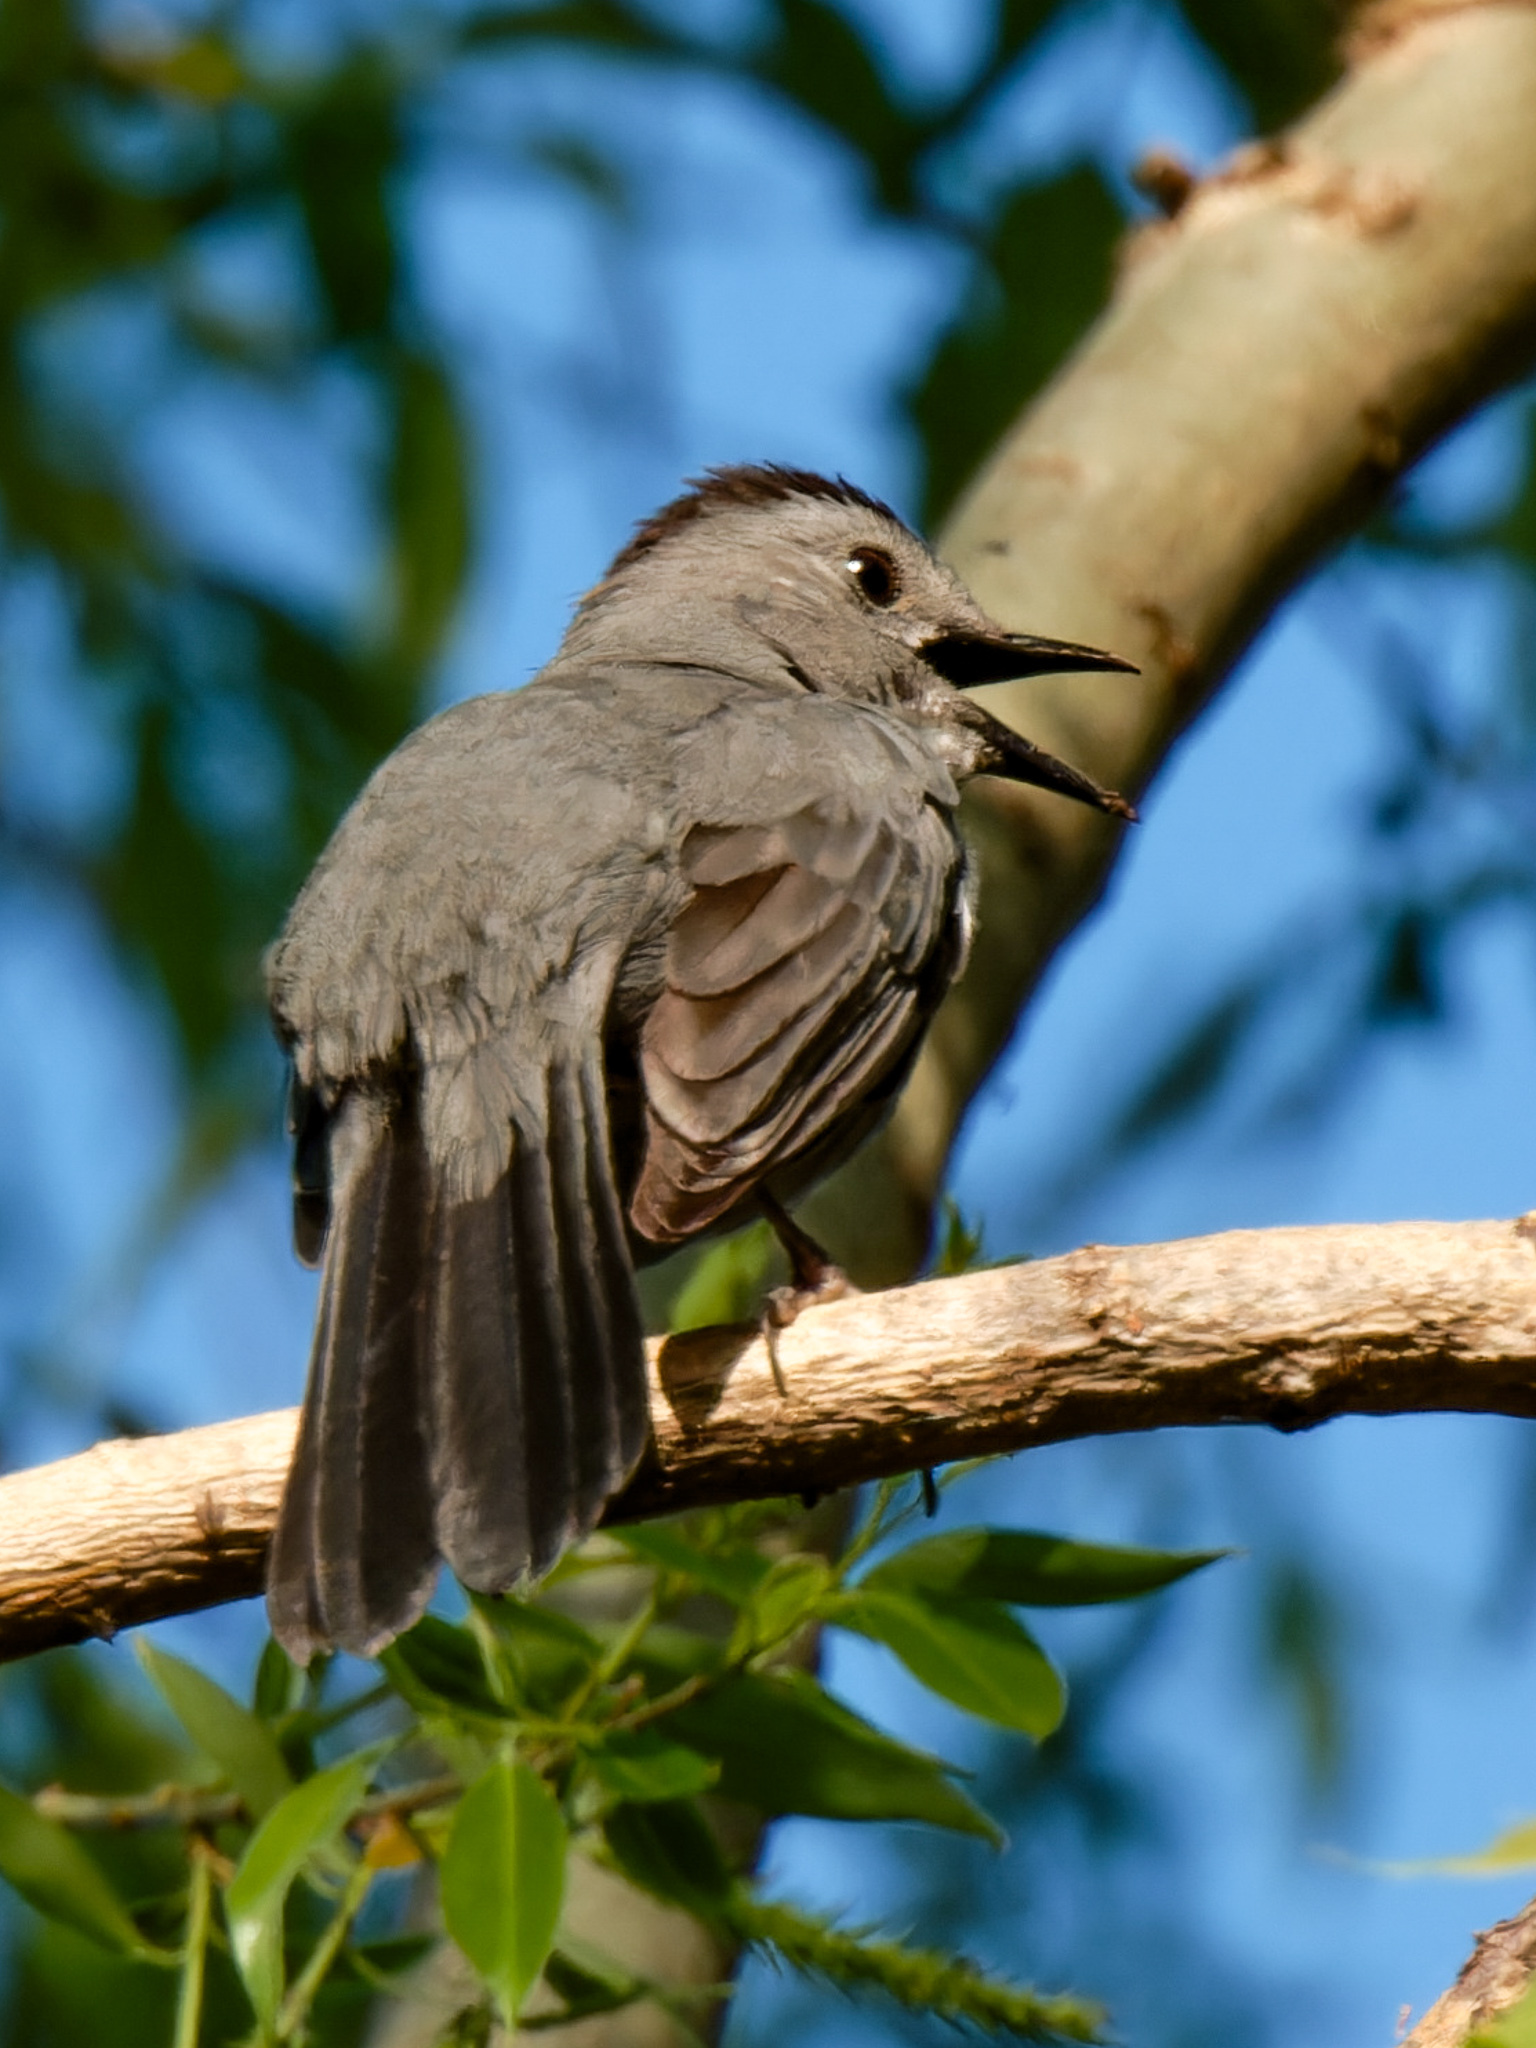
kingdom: Animalia
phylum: Chordata
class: Aves
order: Passeriformes
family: Mimidae
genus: Dumetella
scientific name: Dumetella carolinensis
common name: Gray catbird
